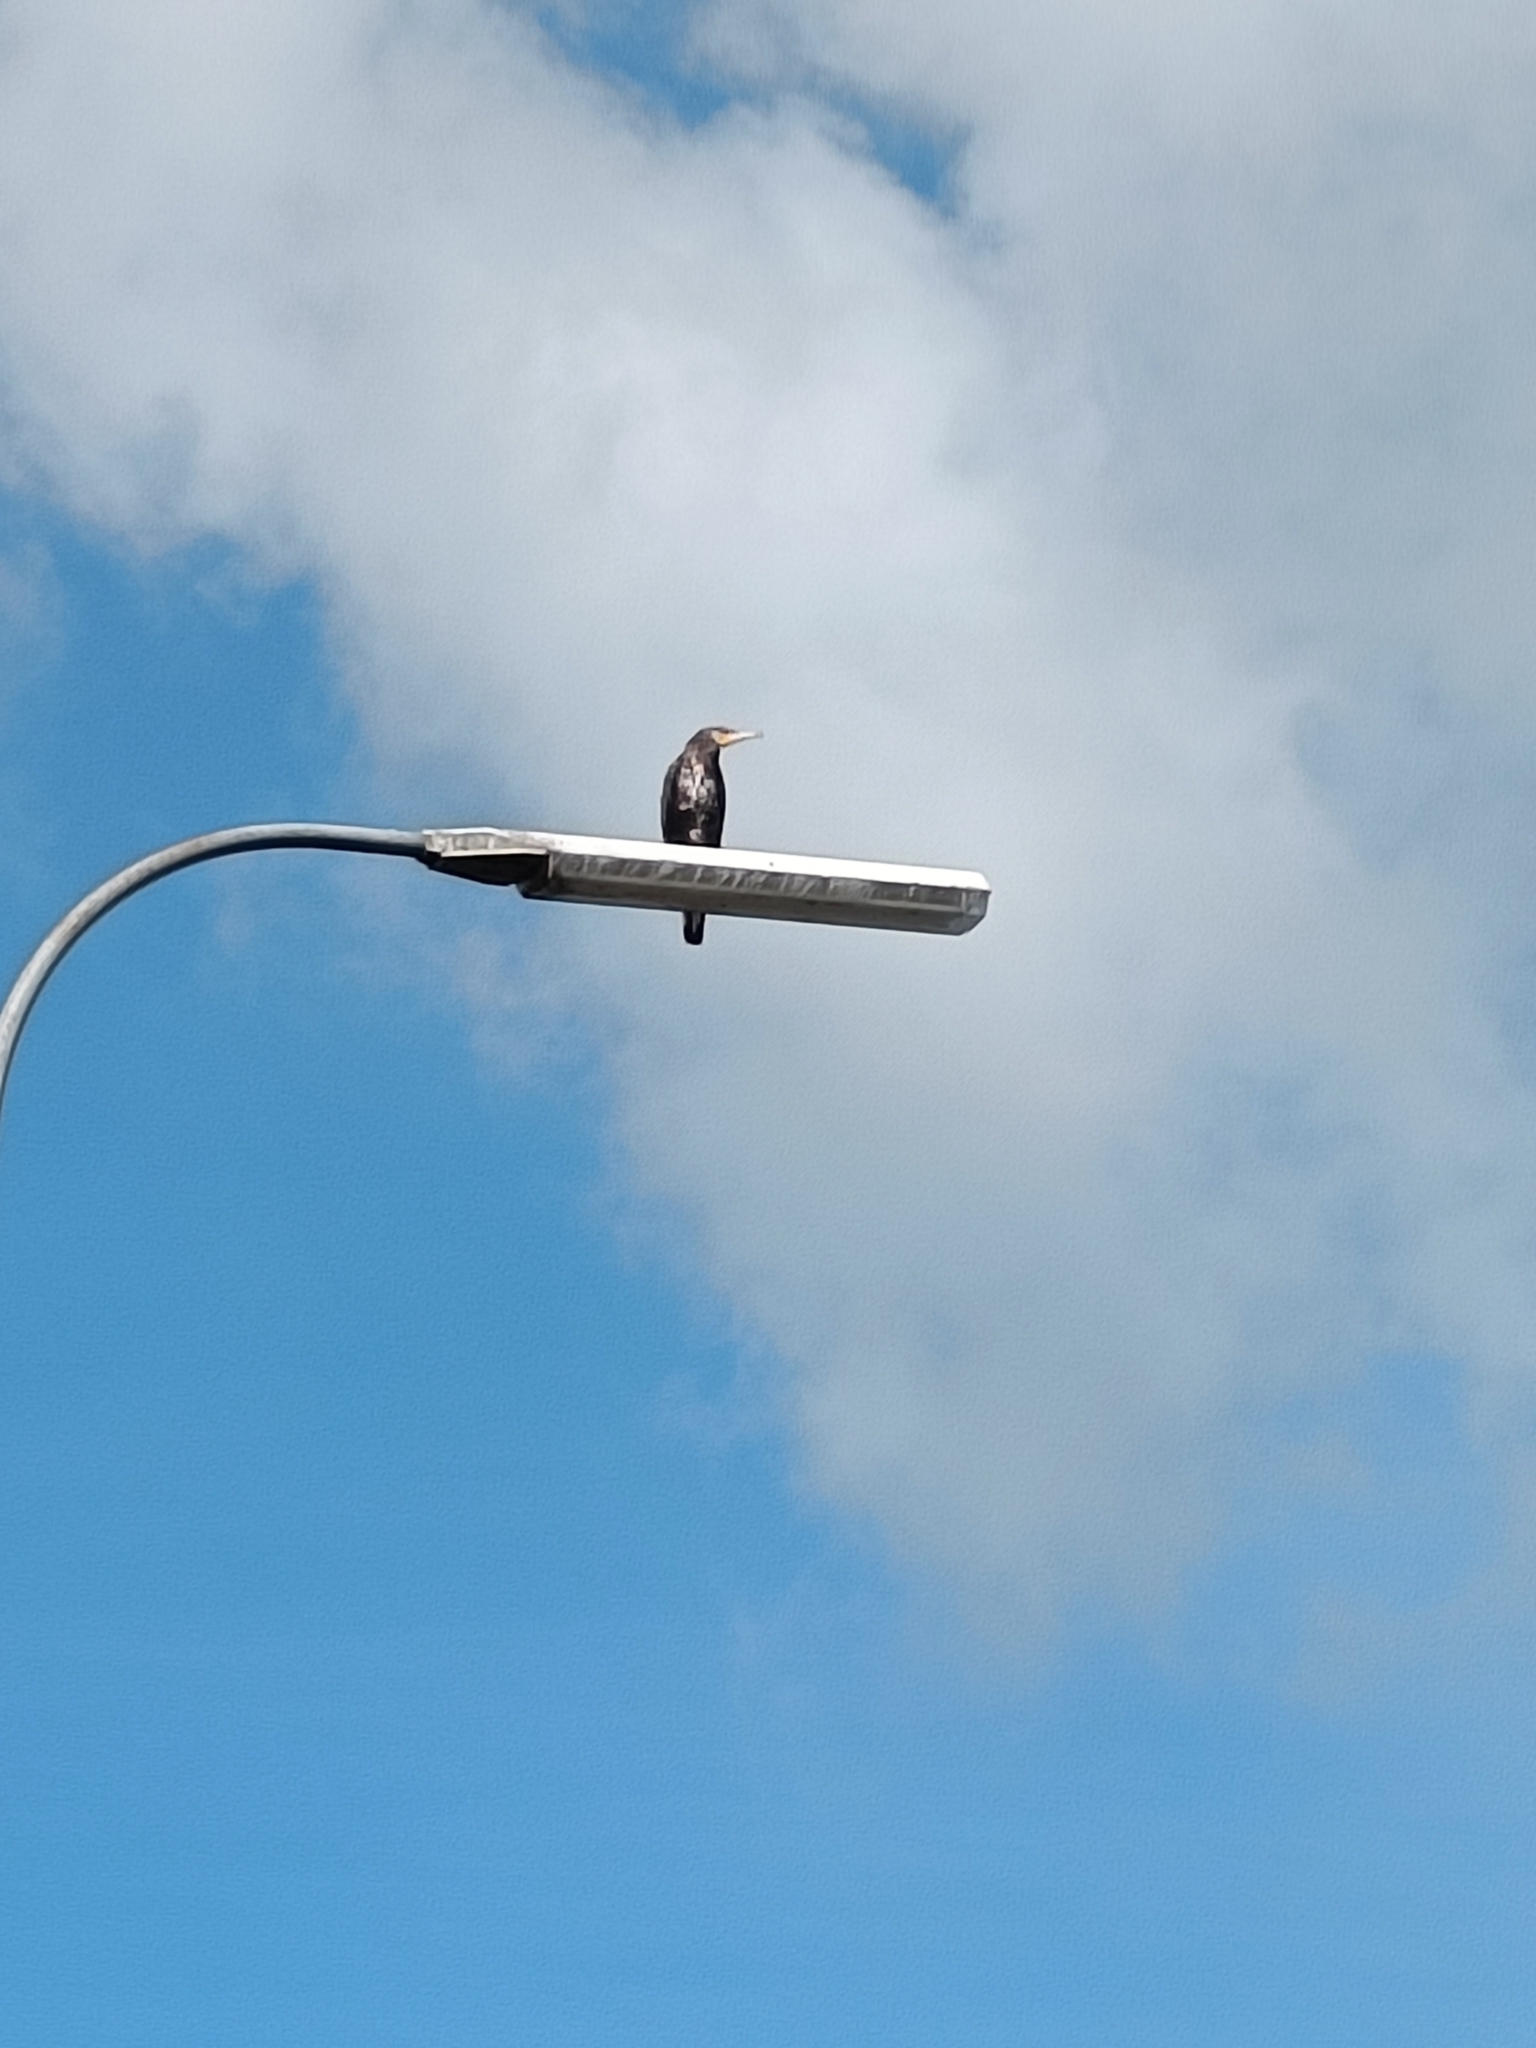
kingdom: Animalia
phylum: Chordata
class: Aves
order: Suliformes
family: Phalacrocoracidae
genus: Phalacrocorax
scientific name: Phalacrocorax carbo
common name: Great cormorant
